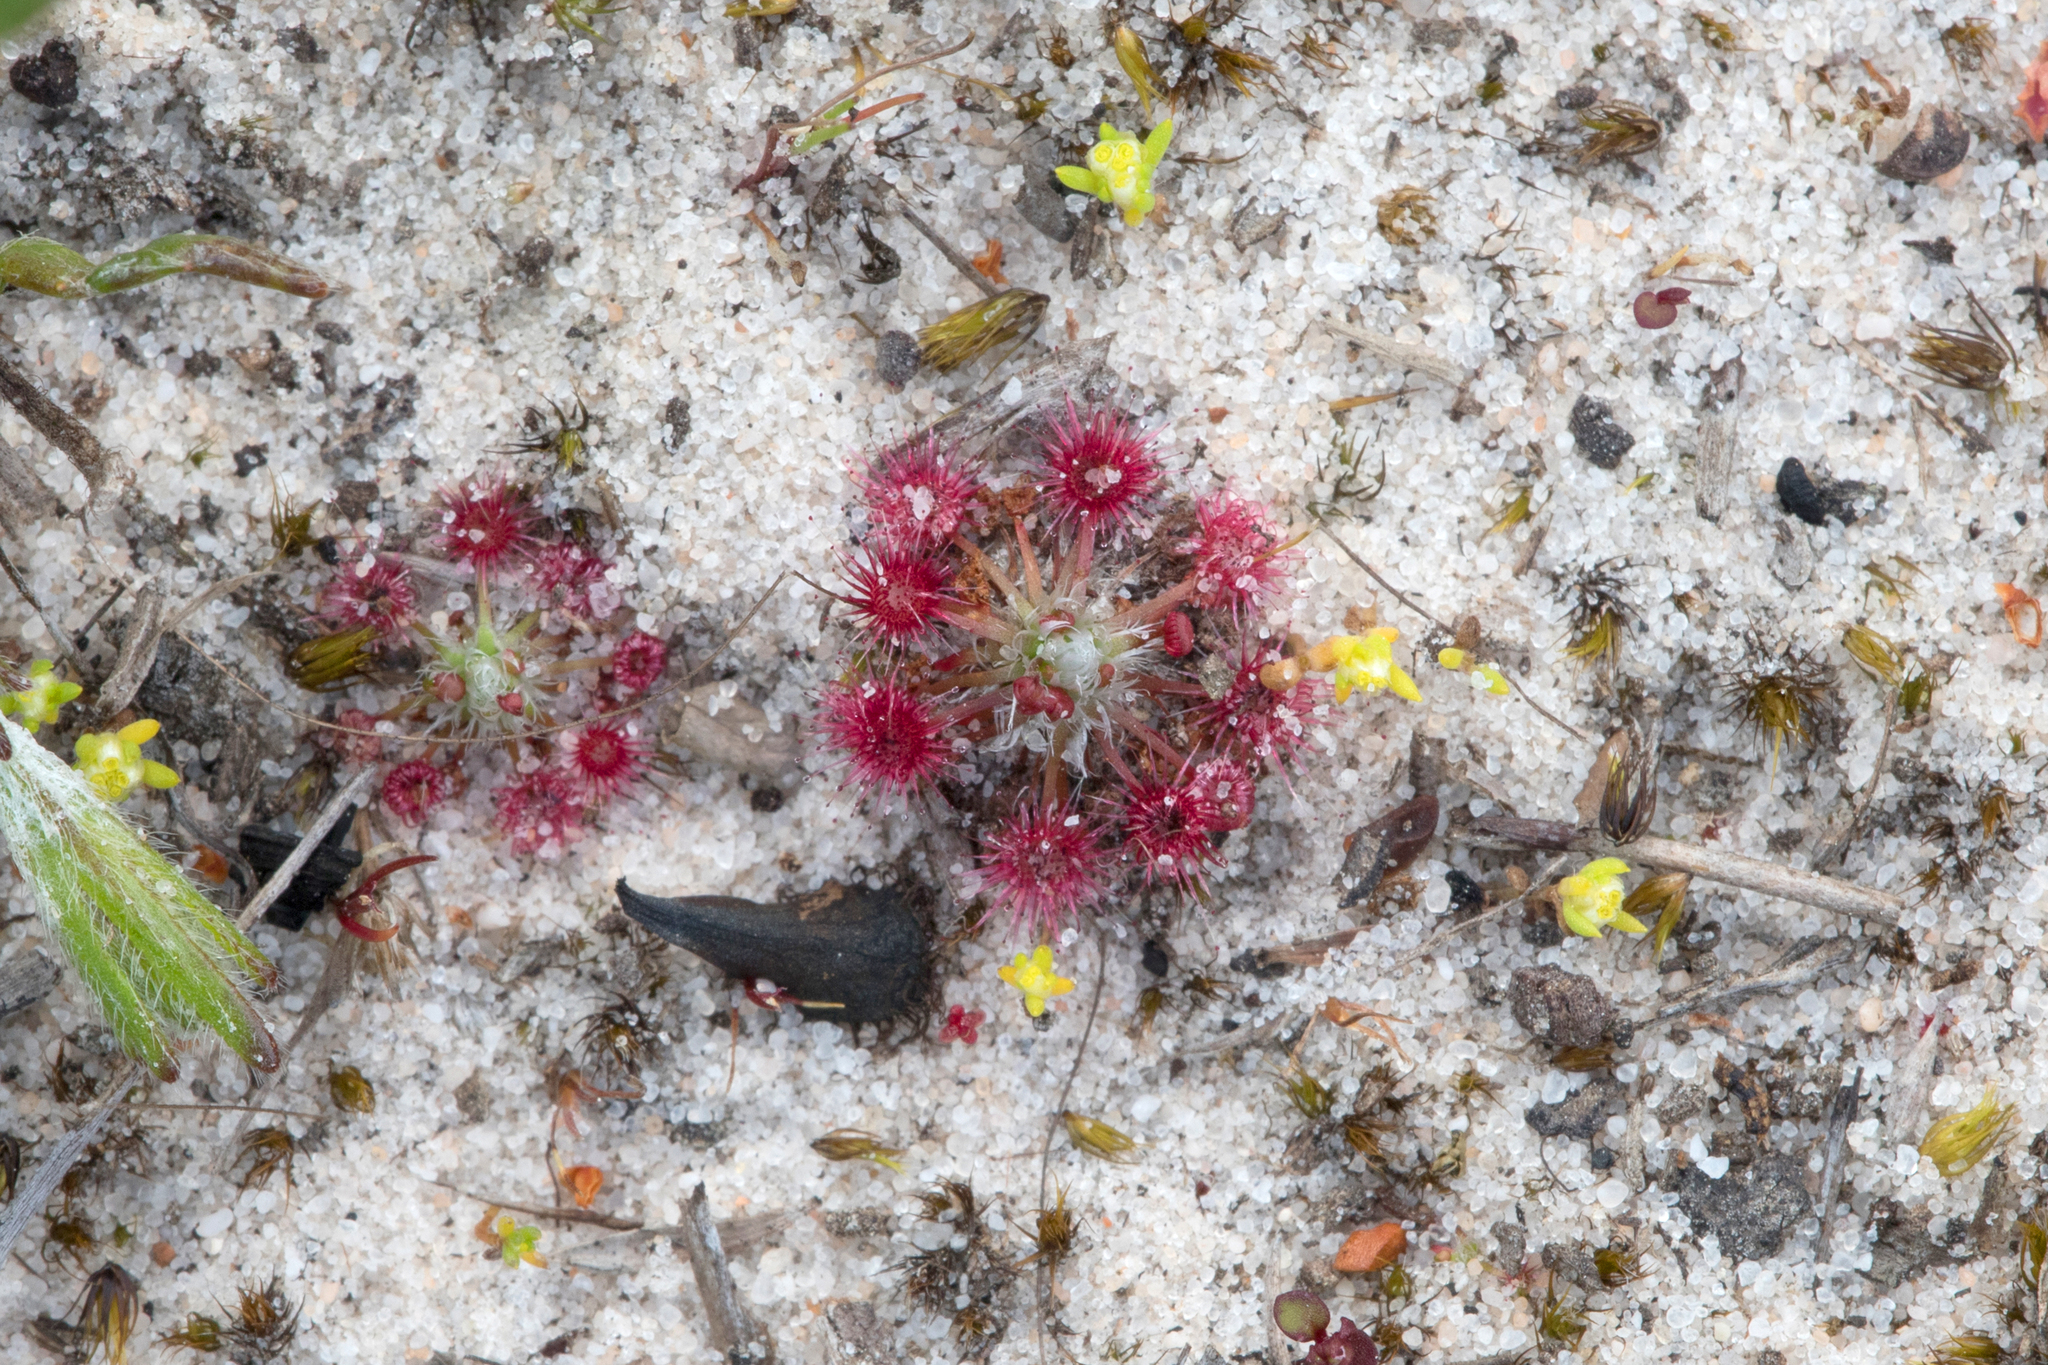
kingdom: Plantae
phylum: Tracheophyta
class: Magnoliopsida
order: Caryophyllales
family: Droseraceae
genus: Drosera
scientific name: Drosera pygmaea
